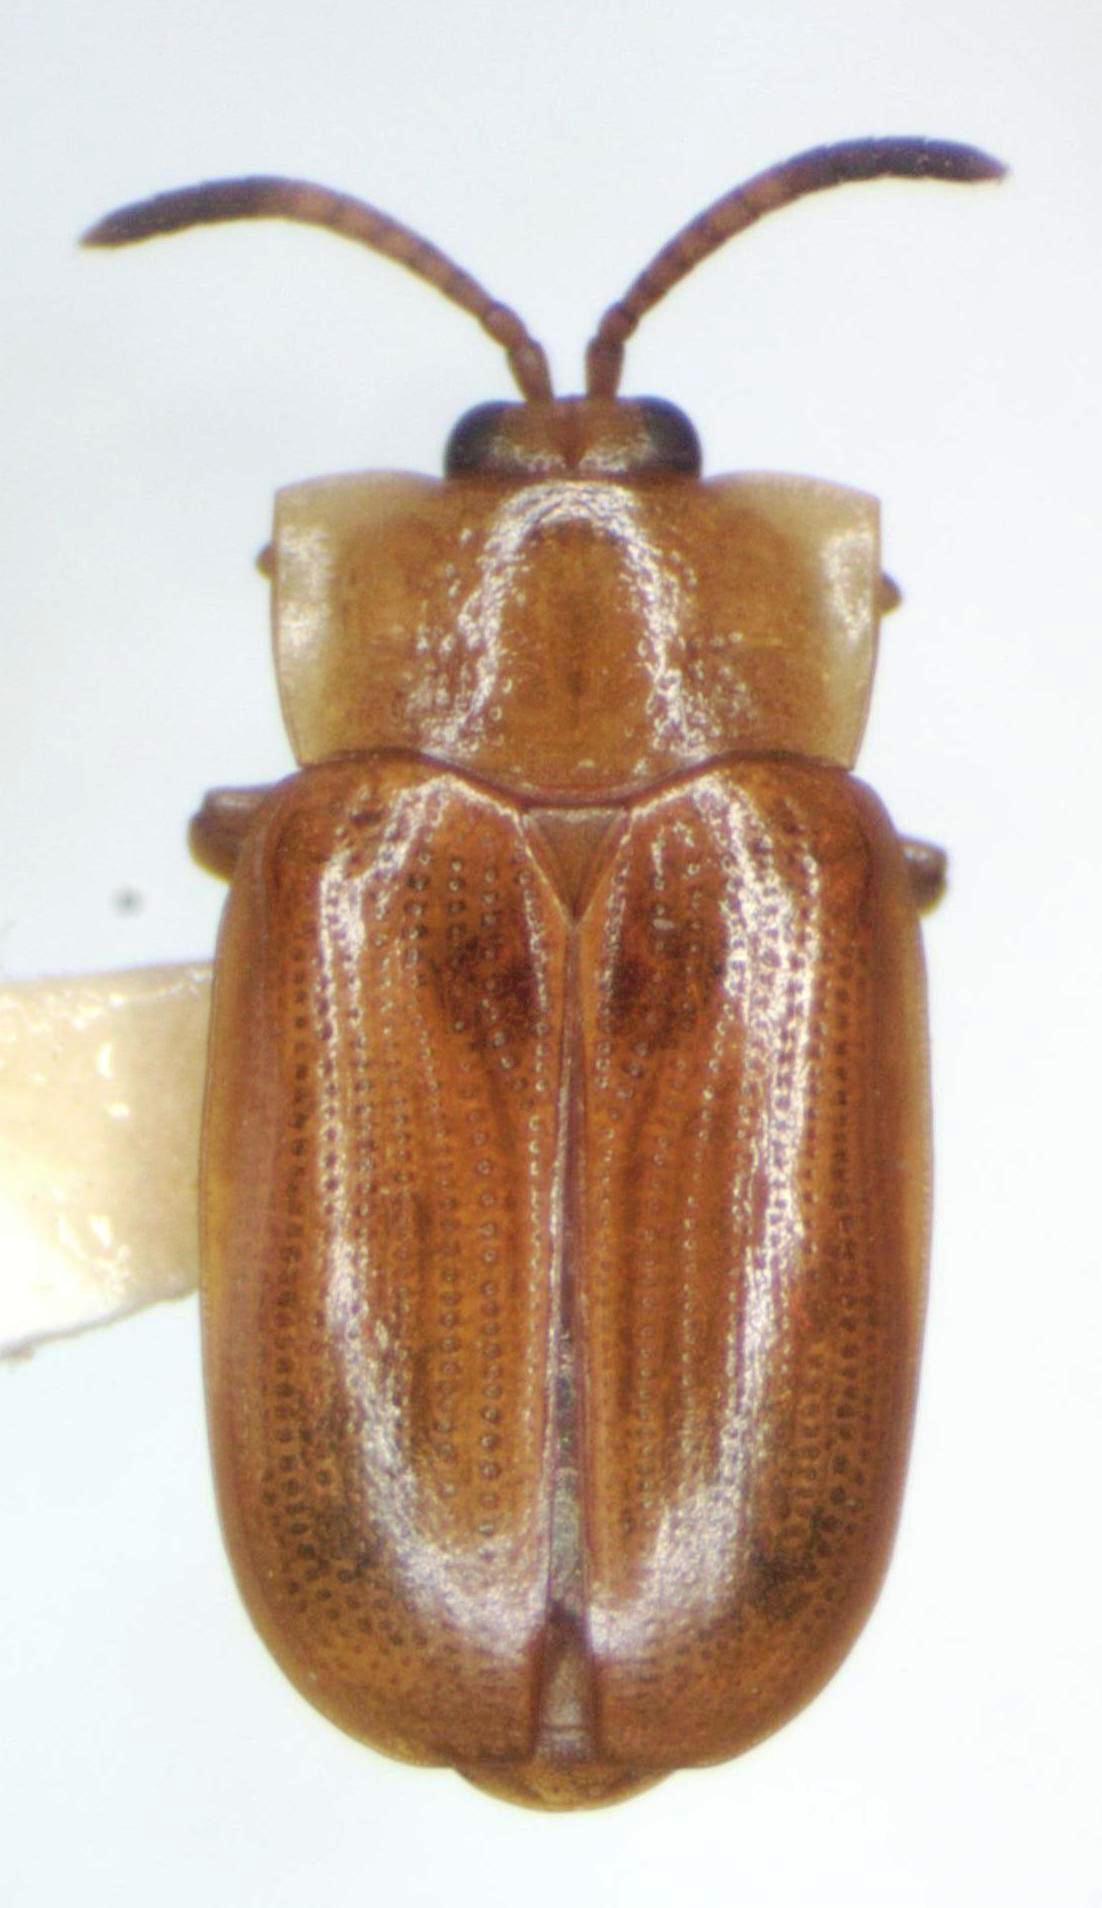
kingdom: Animalia
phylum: Arthropoda
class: Insecta
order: Coleoptera
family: Chrysomelidae
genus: Cephaloleia
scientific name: Cephaloleia dilaticollis
